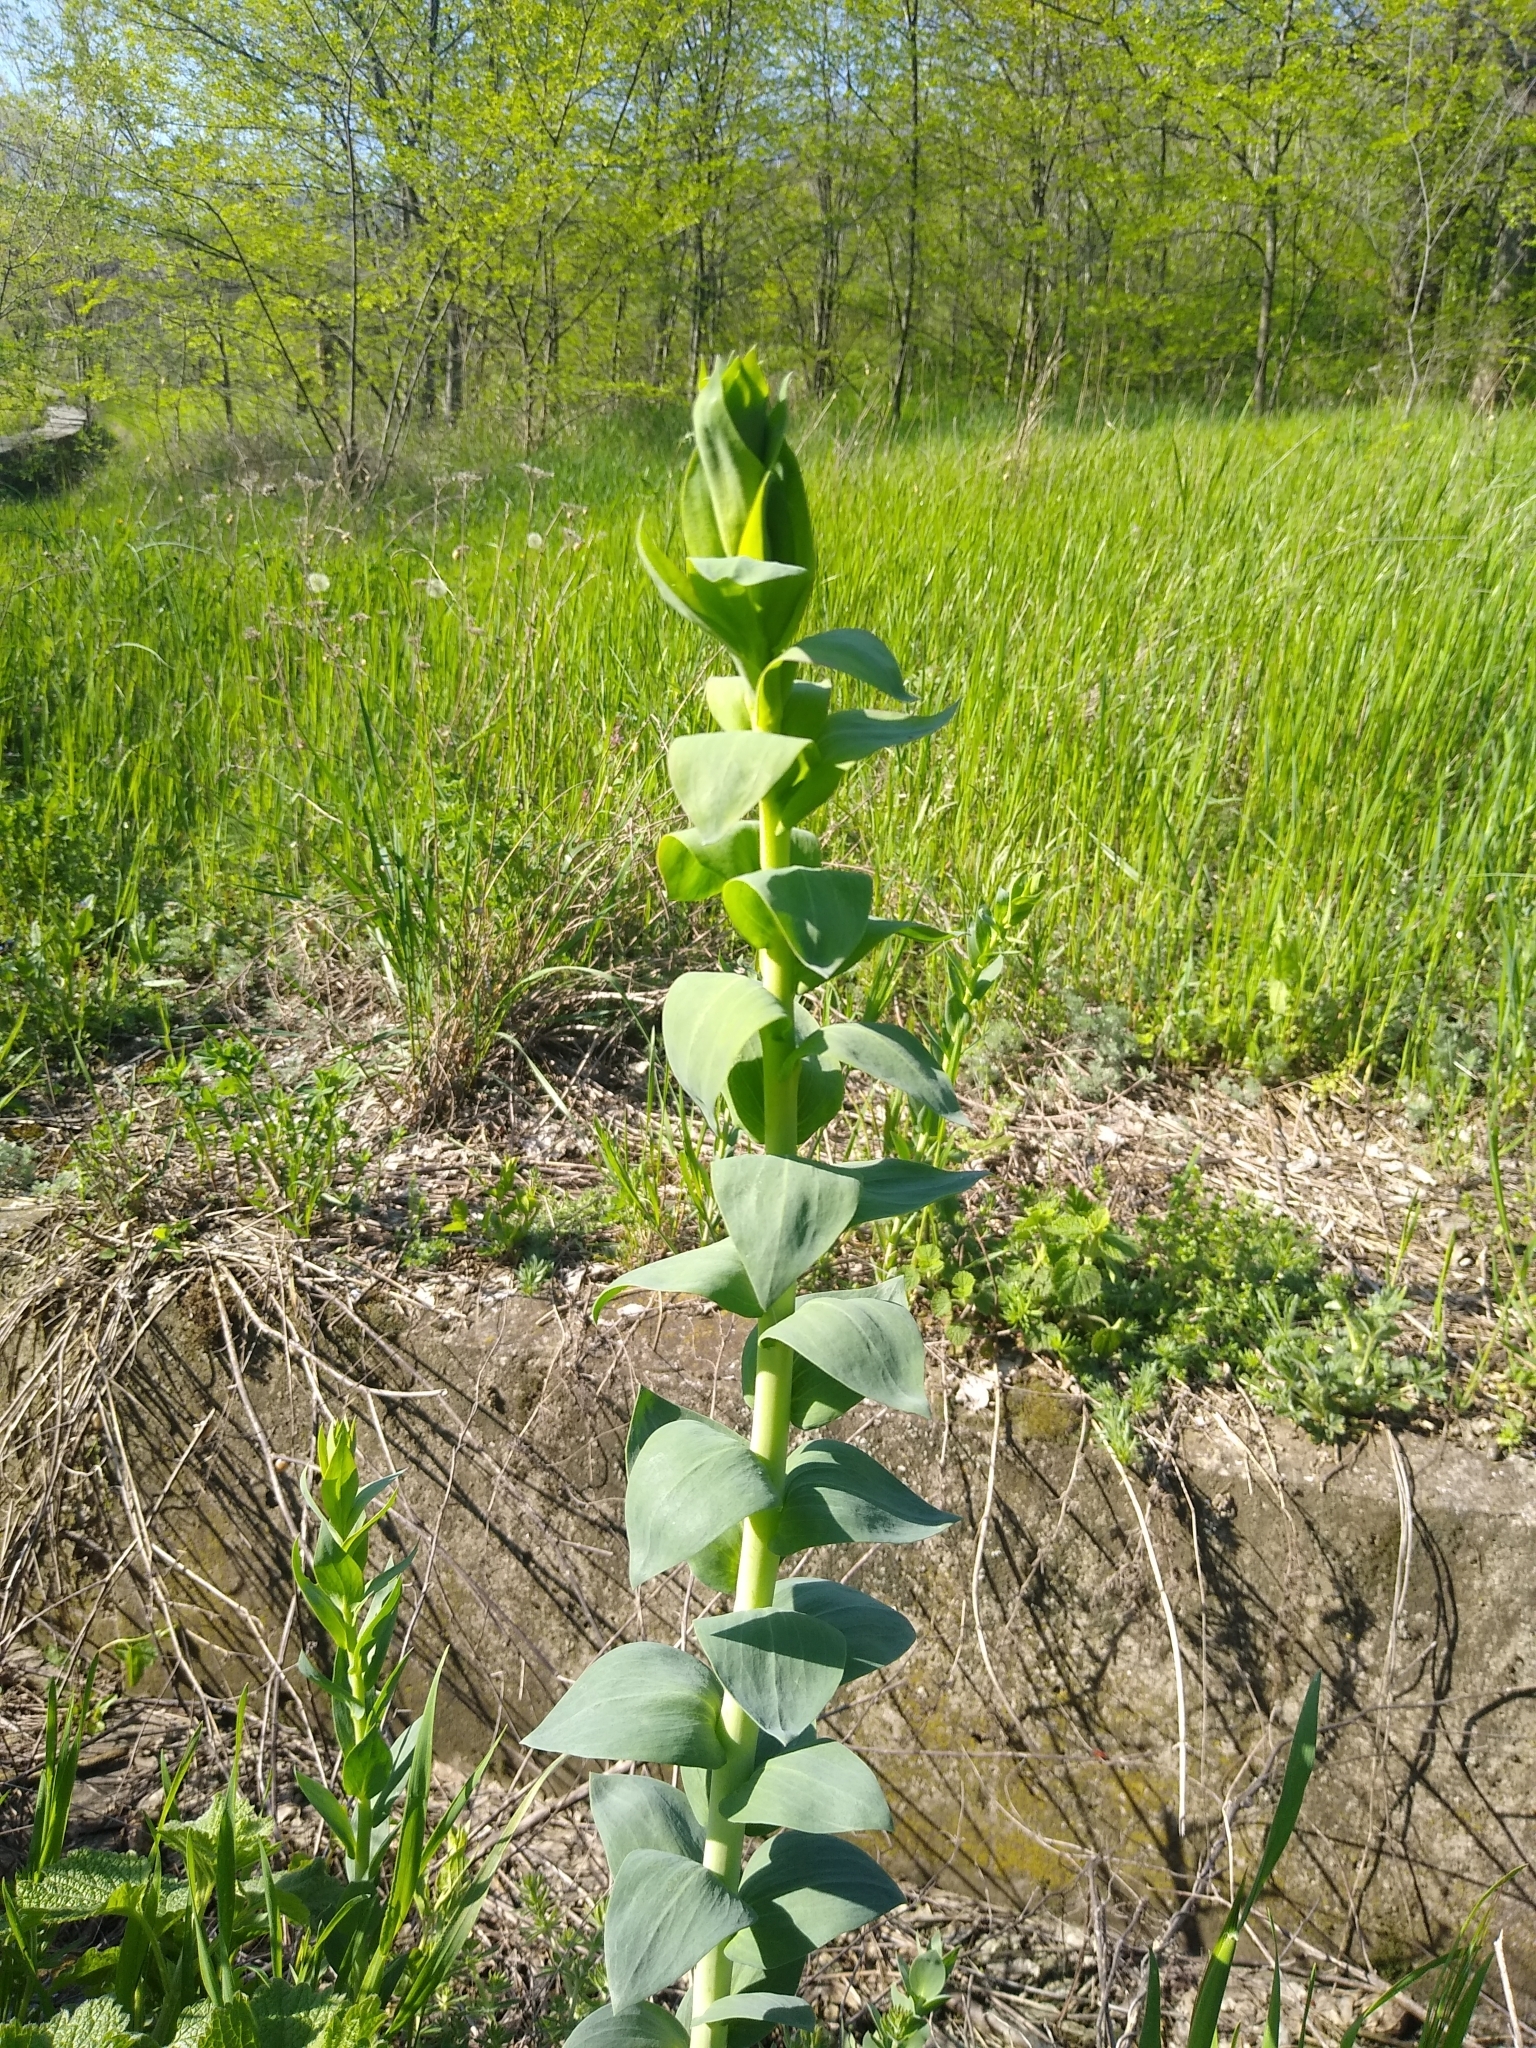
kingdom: Plantae
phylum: Tracheophyta
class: Magnoliopsida
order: Lamiales
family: Plantaginaceae
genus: Linaria
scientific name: Linaria genistifolia
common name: Broomleaf toadflax
